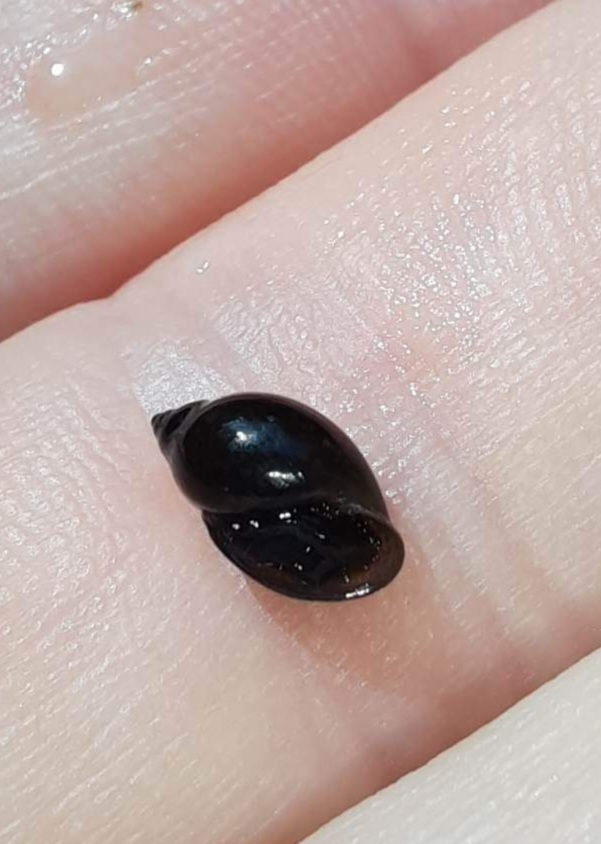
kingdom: Animalia
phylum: Mollusca
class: Gastropoda
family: Physidae
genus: Physella
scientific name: Physella acuta
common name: European physa
